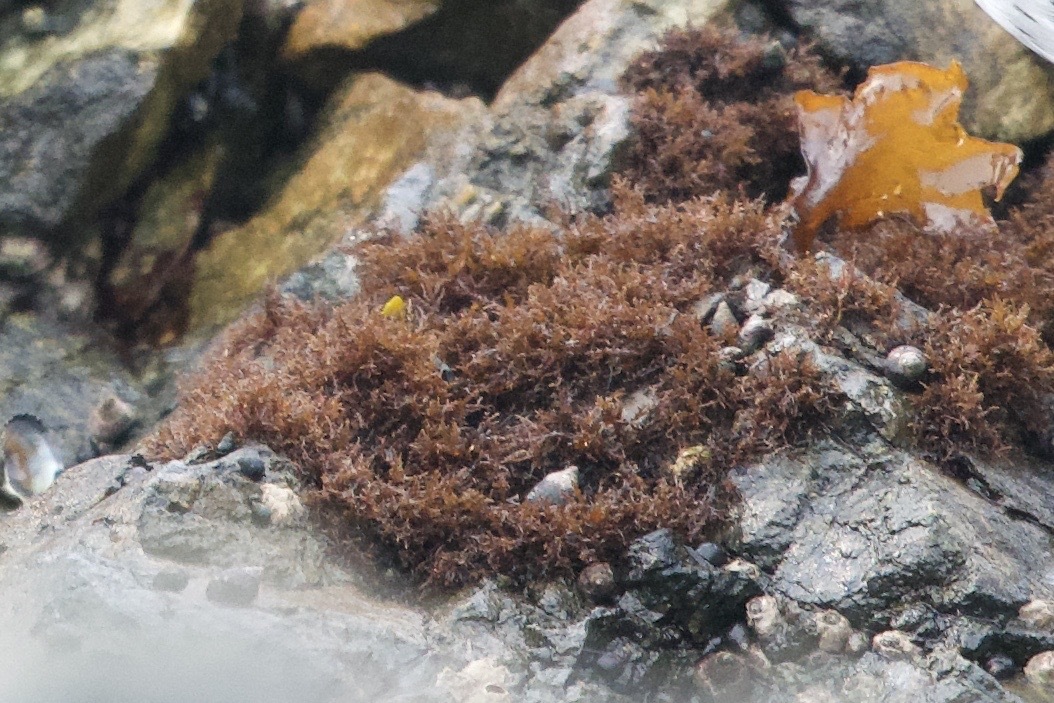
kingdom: Plantae
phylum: Rhodophyta
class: Florideophyceae
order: Gigartinales
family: Endocladiaceae
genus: Endocladia
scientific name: Endocladia muricata
